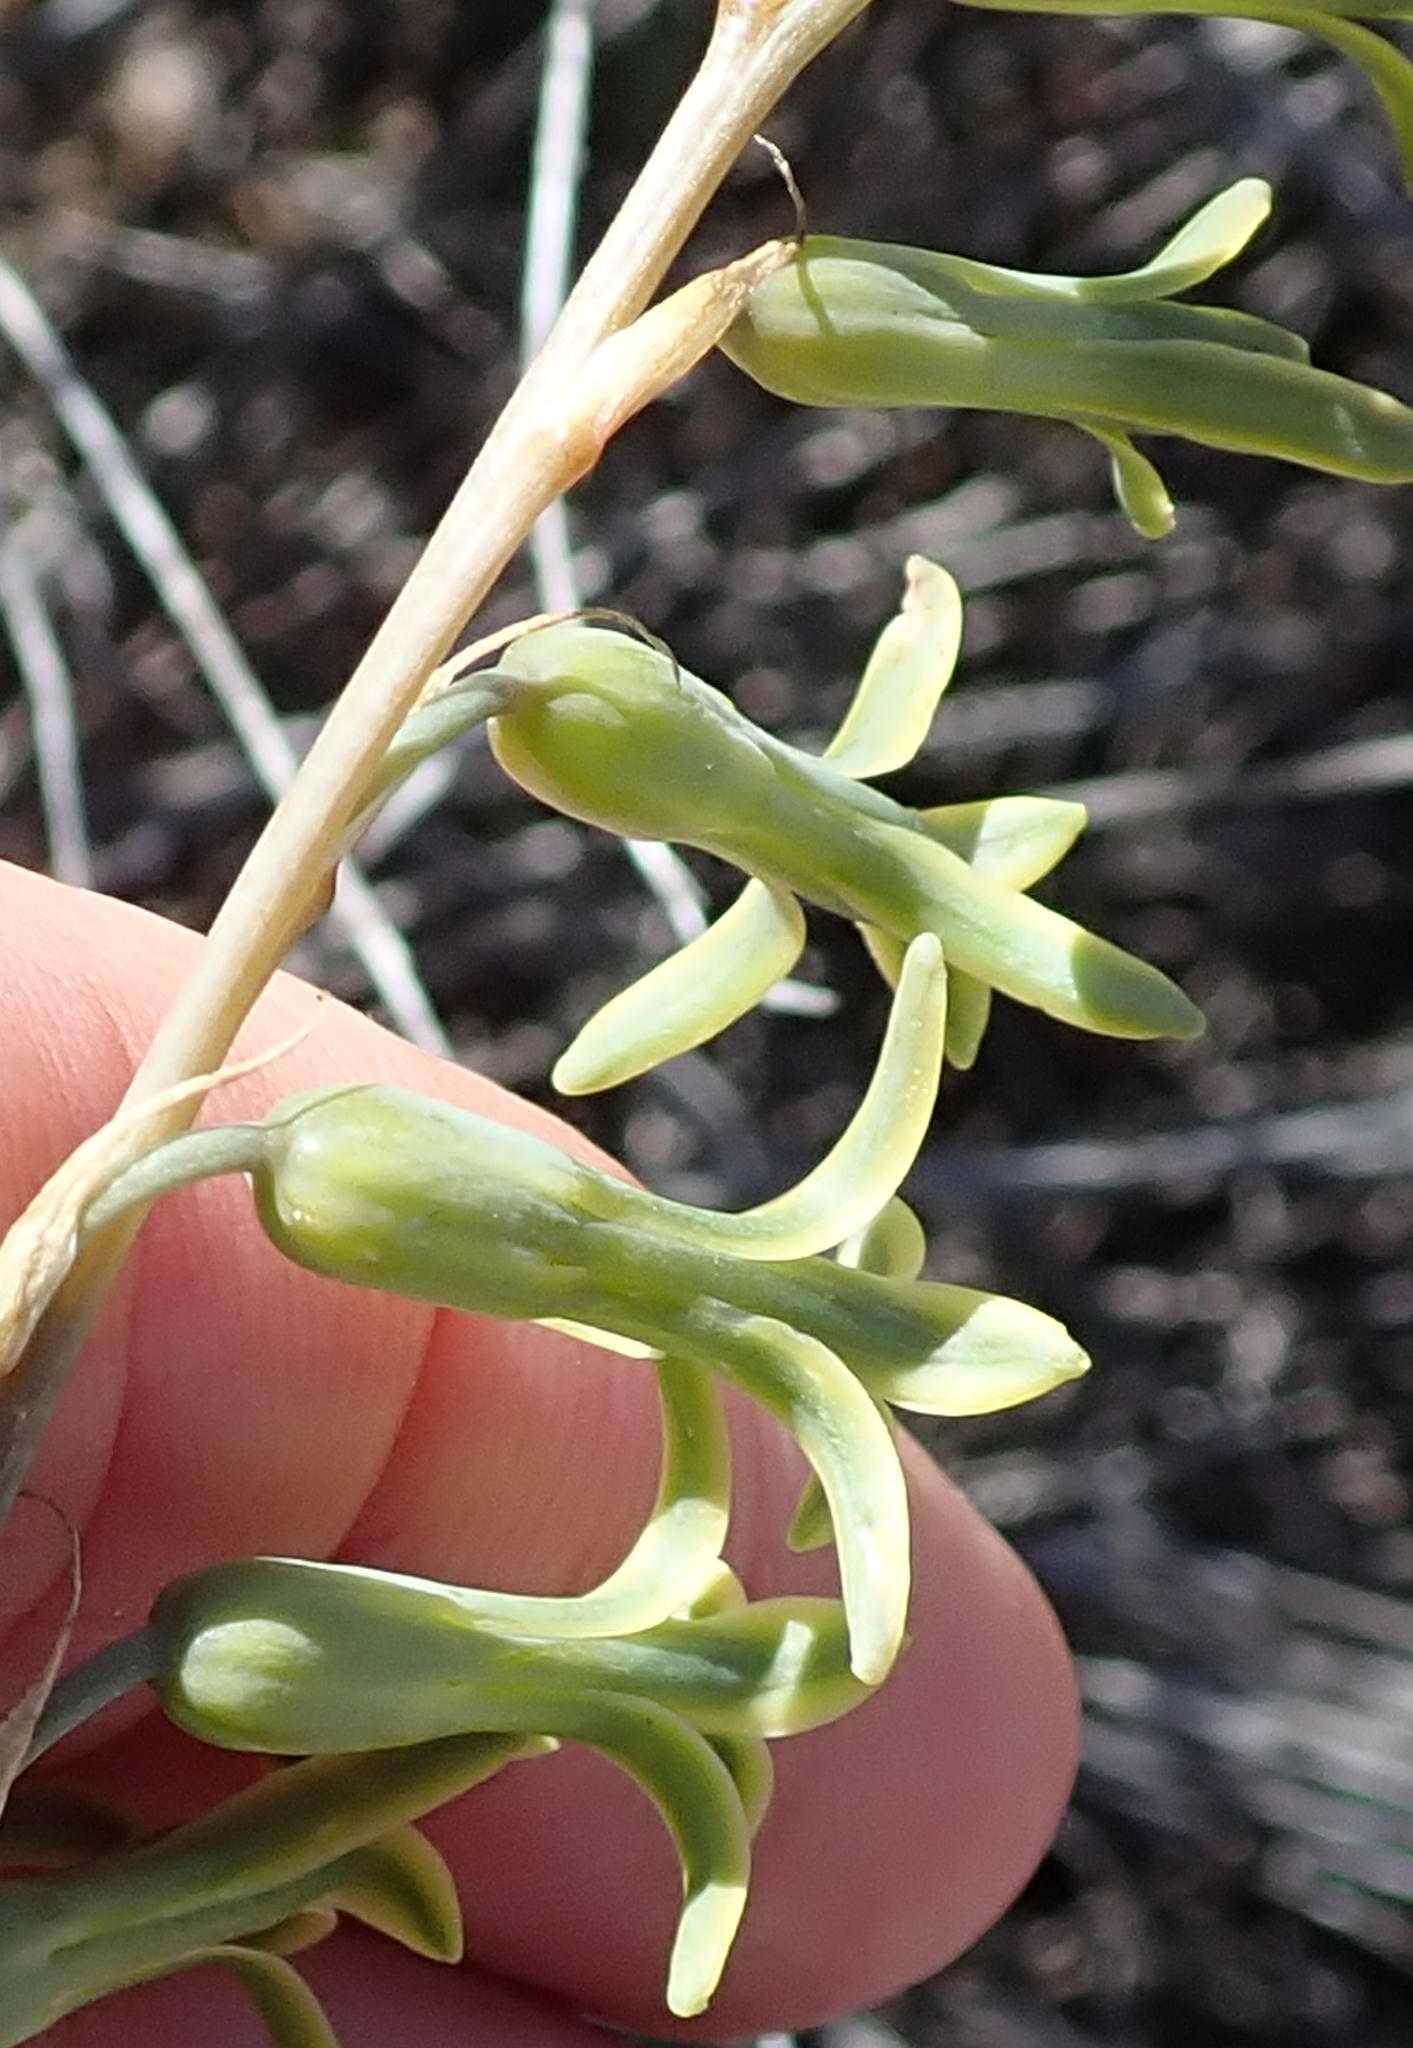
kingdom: Plantae
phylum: Tracheophyta
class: Liliopsida
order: Asparagales
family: Asparagaceae
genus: Dipcadi
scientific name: Dipcadi brevifolium
